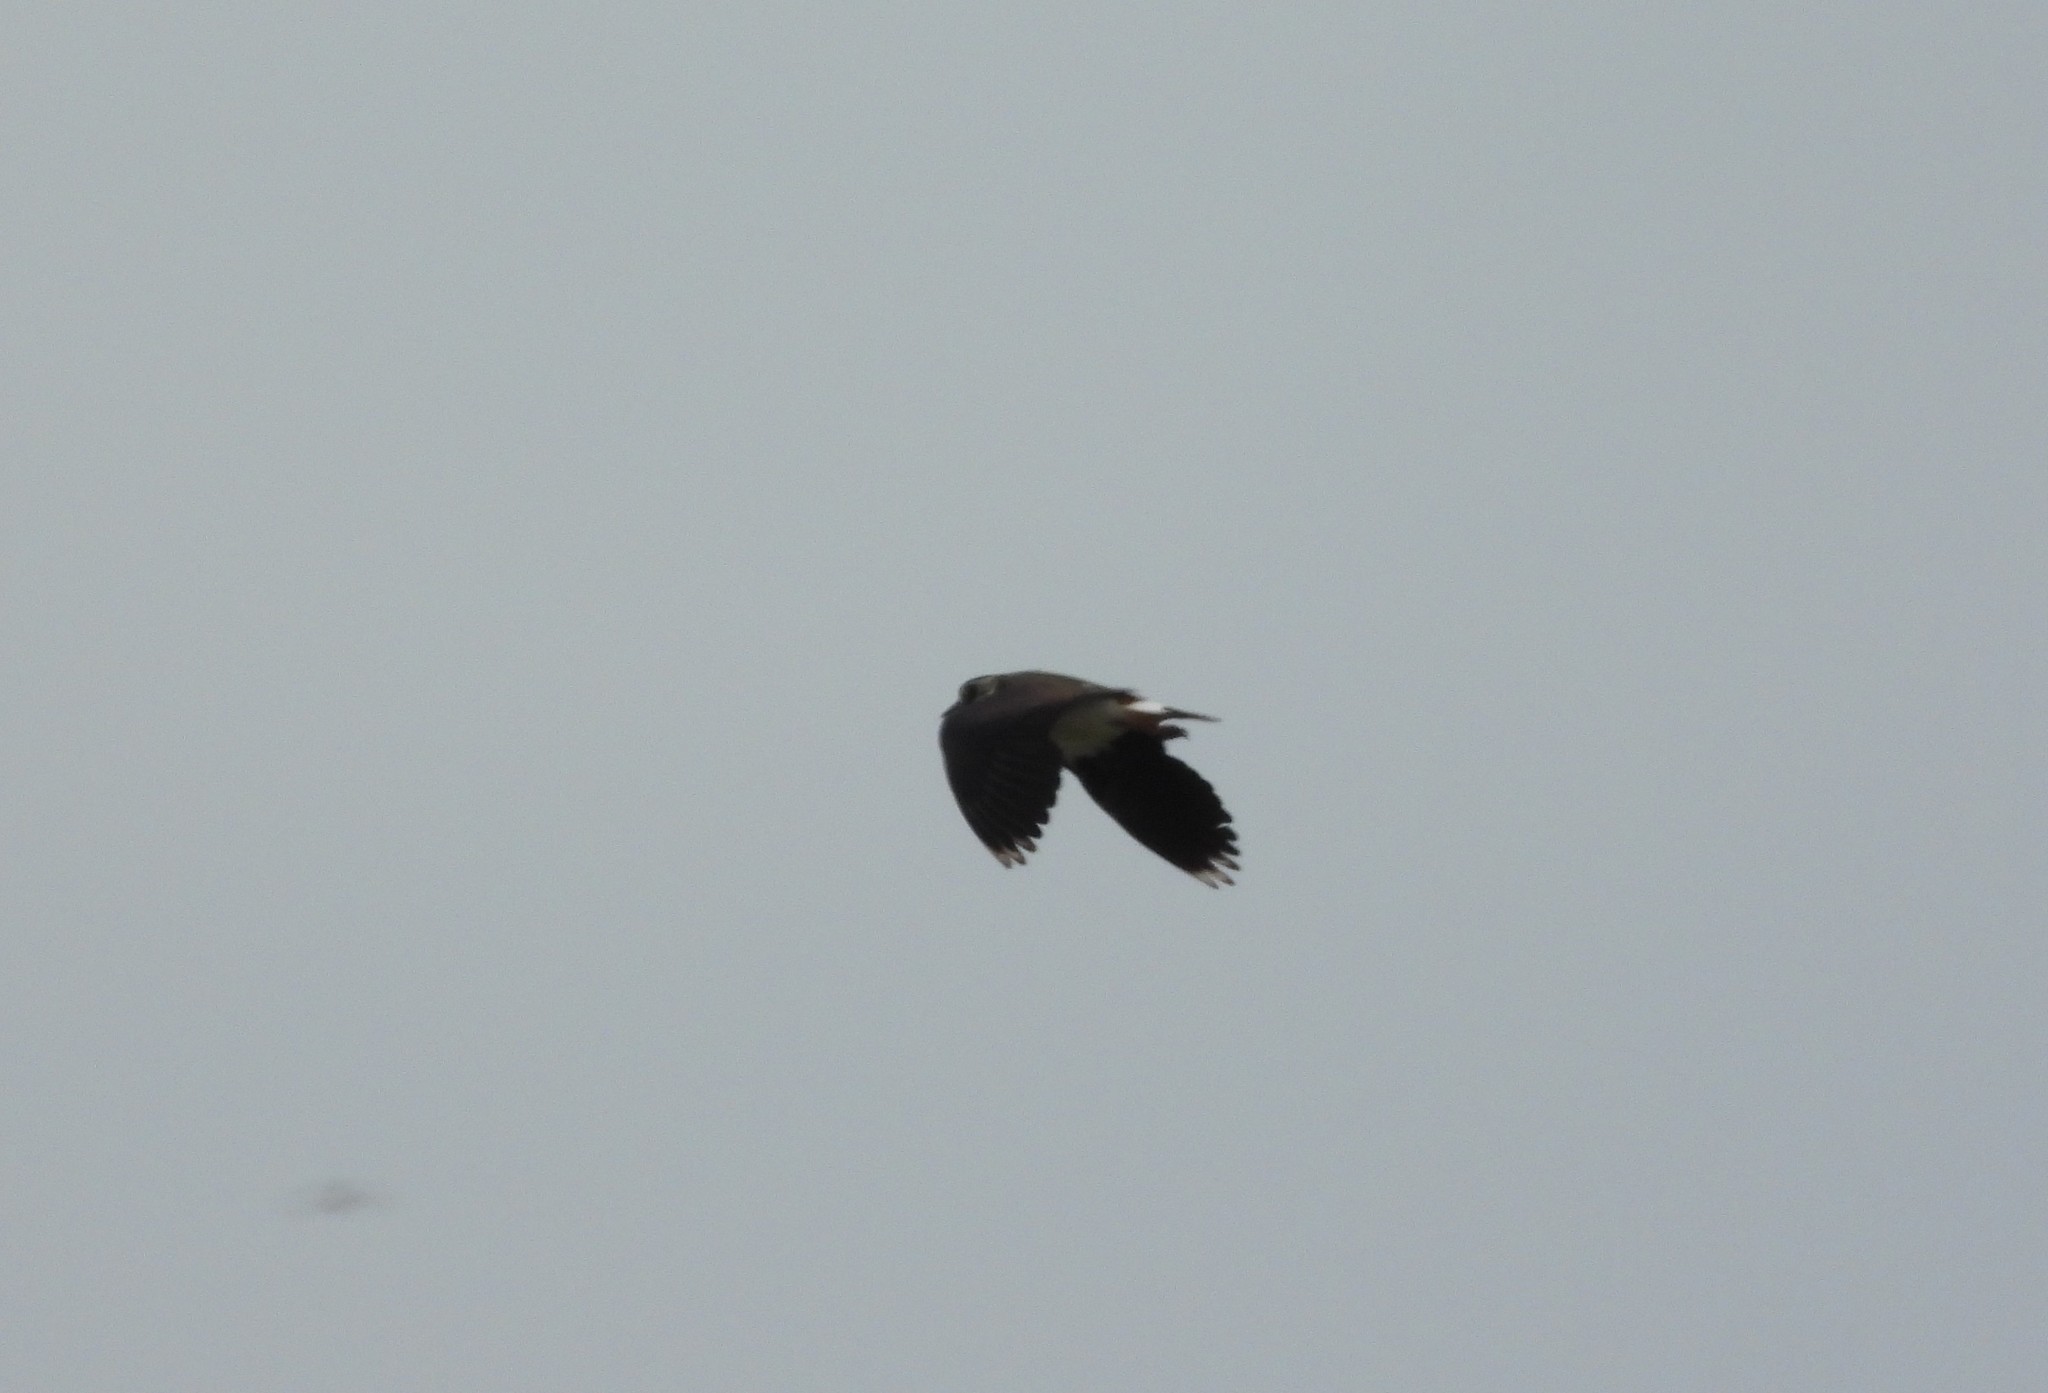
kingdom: Animalia
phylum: Chordata
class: Aves
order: Charadriiformes
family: Charadriidae
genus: Vanellus
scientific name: Vanellus vanellus
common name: Northern lapwing
